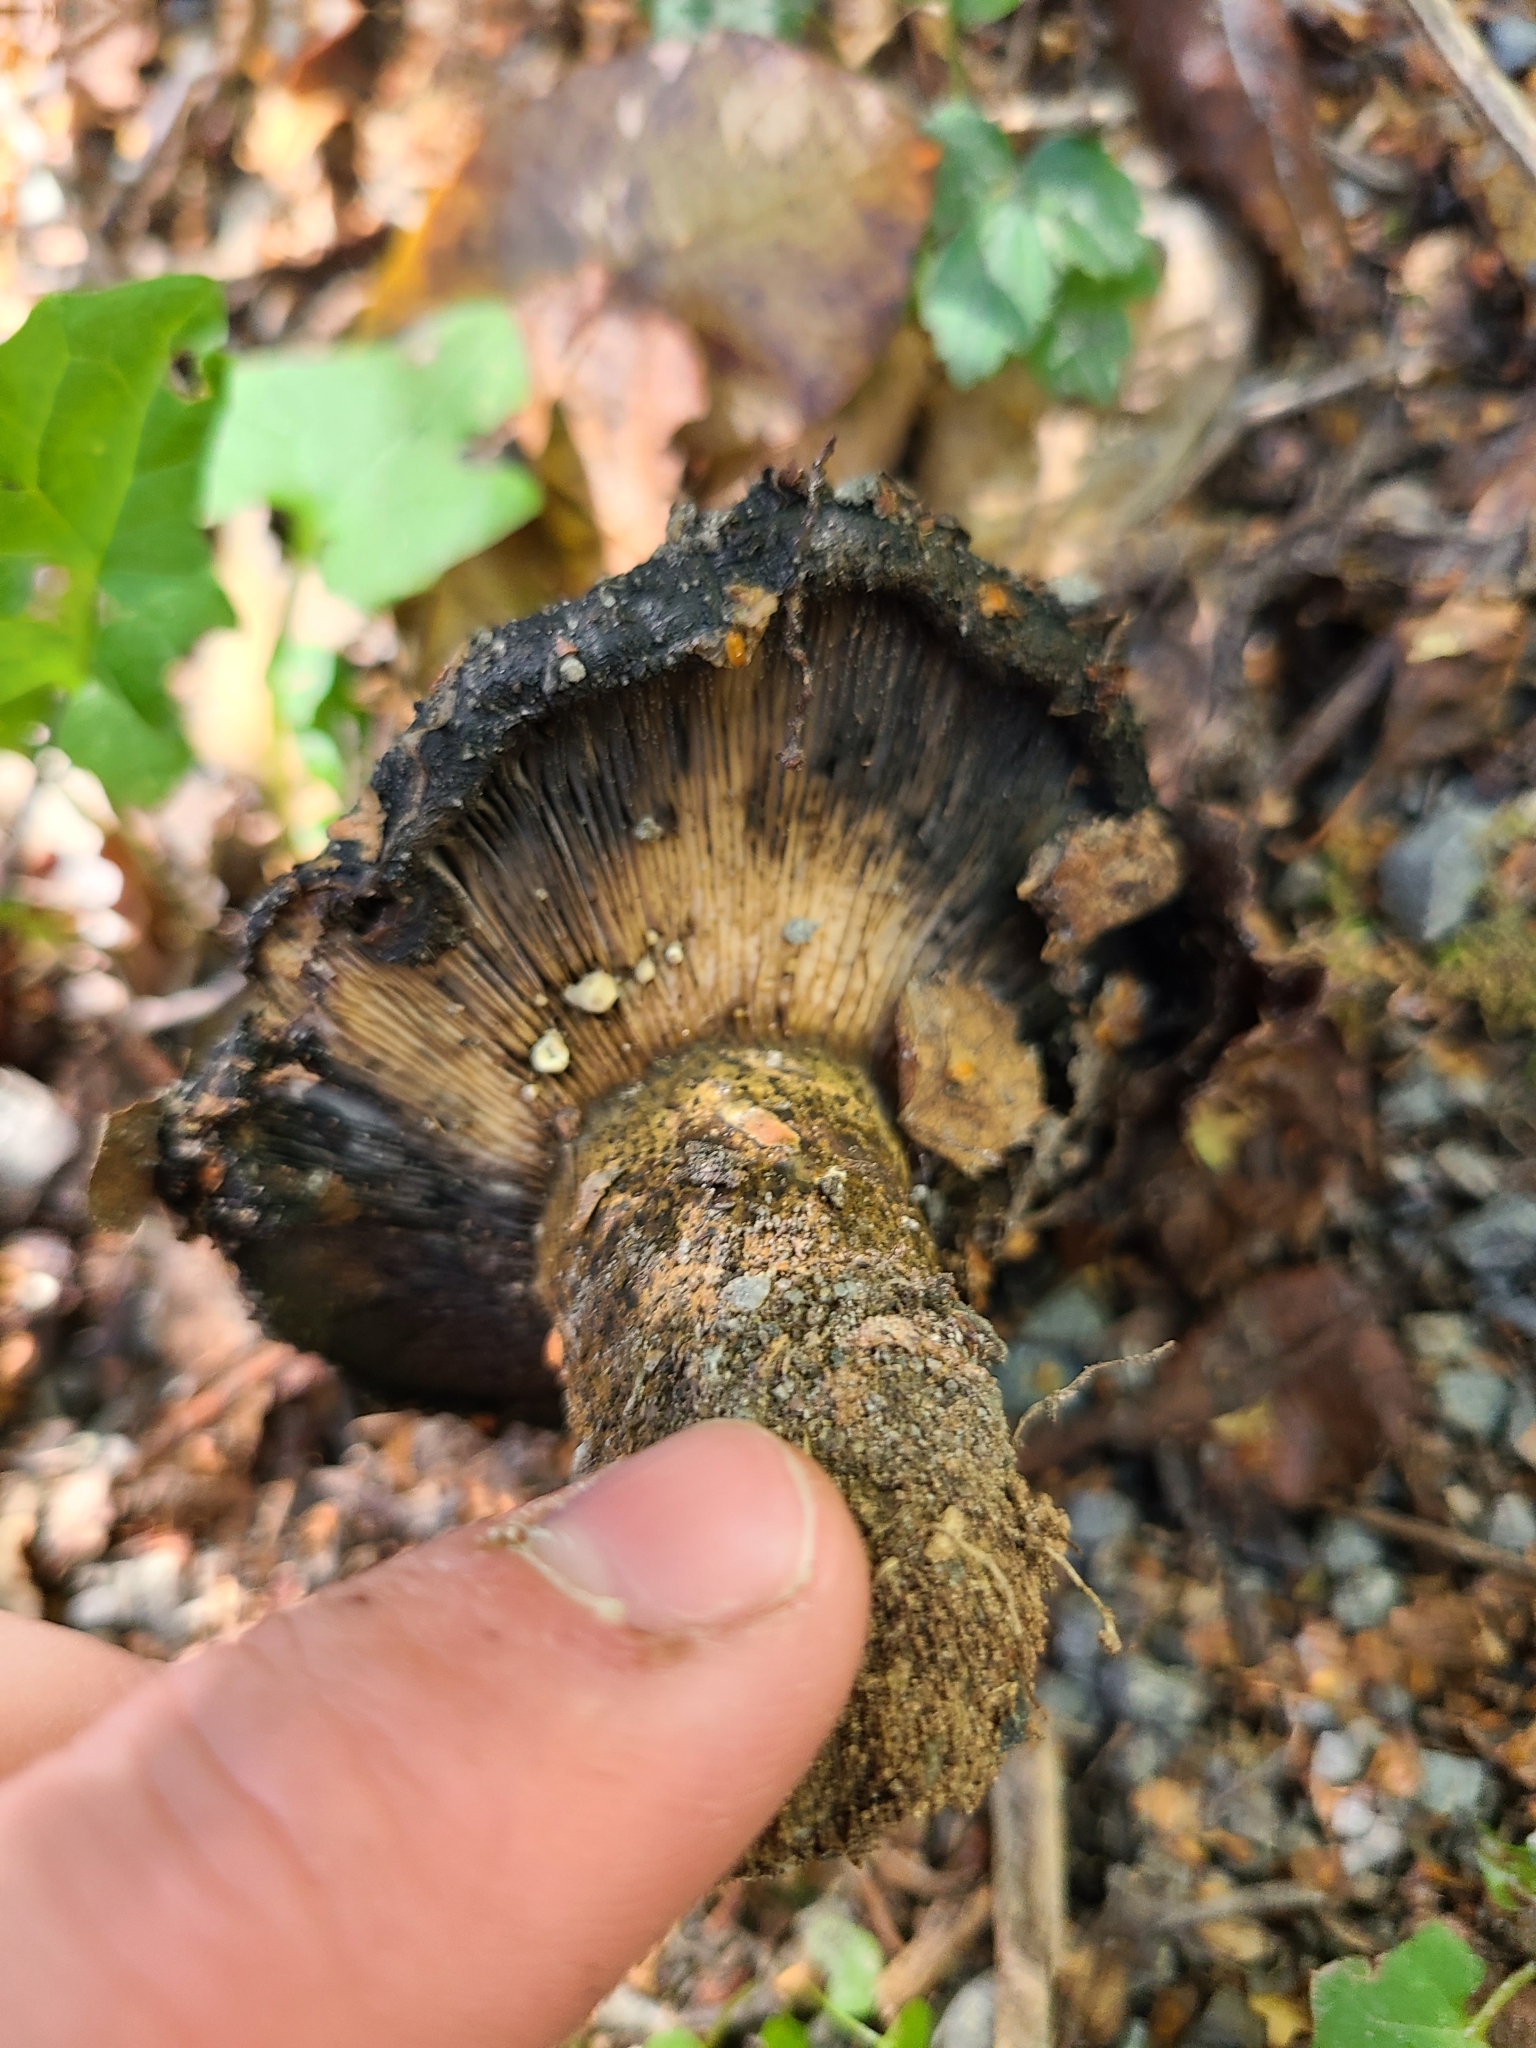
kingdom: Fungi
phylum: Basidiomycota
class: Agaricomycetes
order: Russulales
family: Russulaceae
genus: Lactarius
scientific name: Lactarius turpis
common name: Ugly milk-cap
